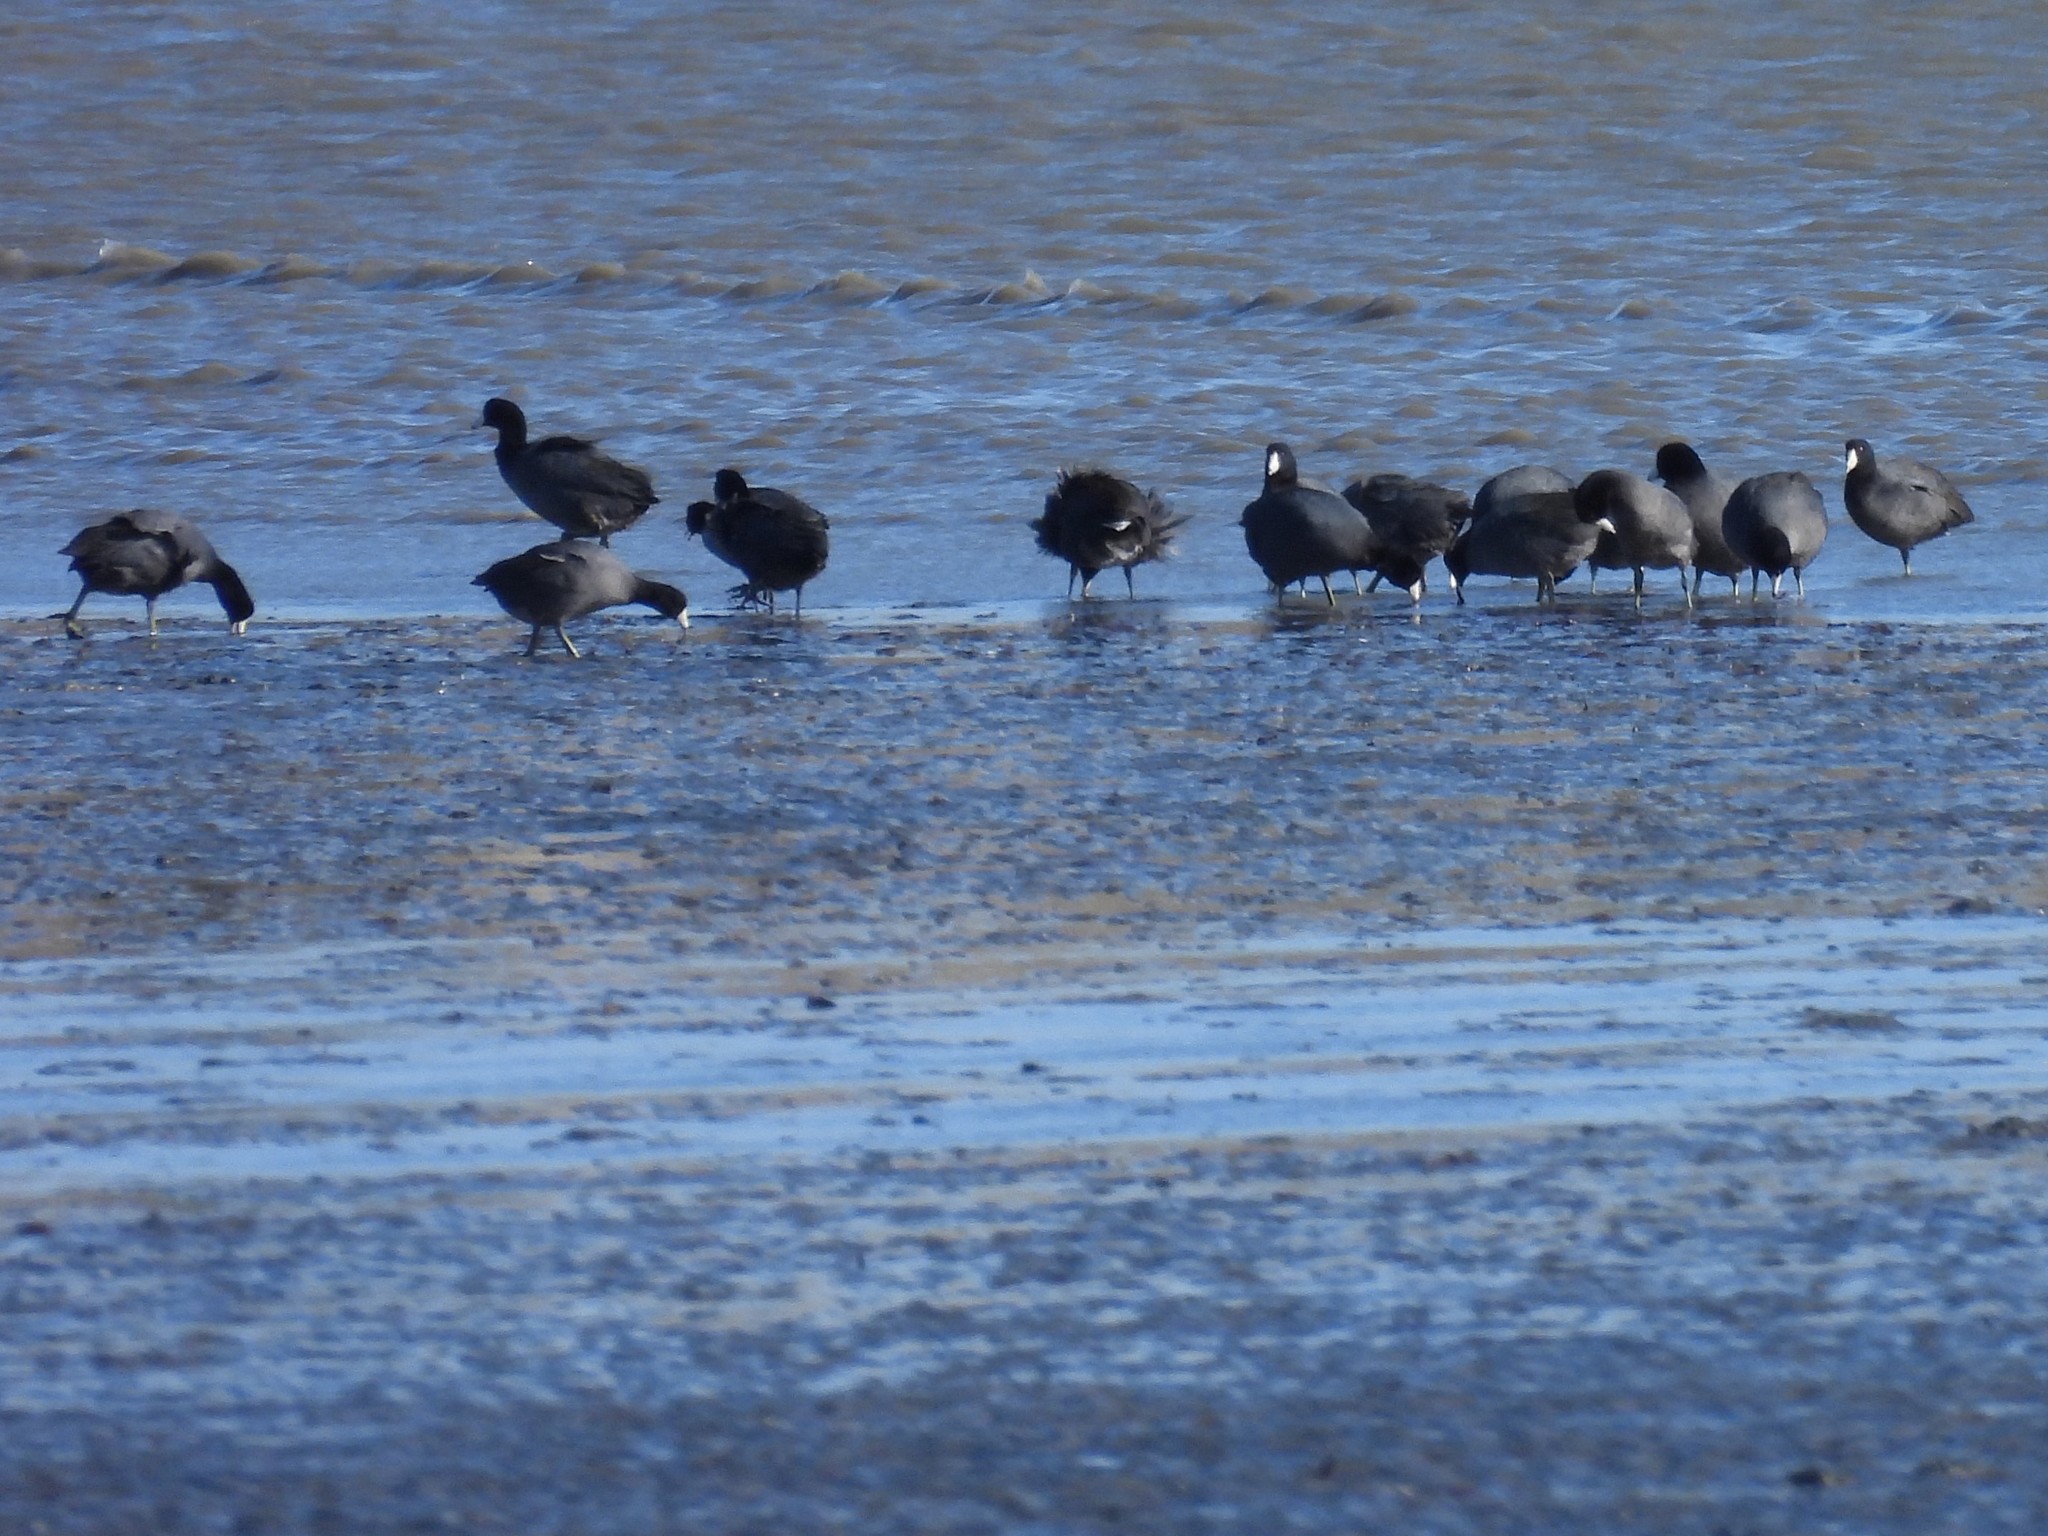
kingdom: Animalia
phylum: Chordata
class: Aves
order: Gruiformes
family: Rallidae
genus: Fulica
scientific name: Fulica americana
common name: American coot
